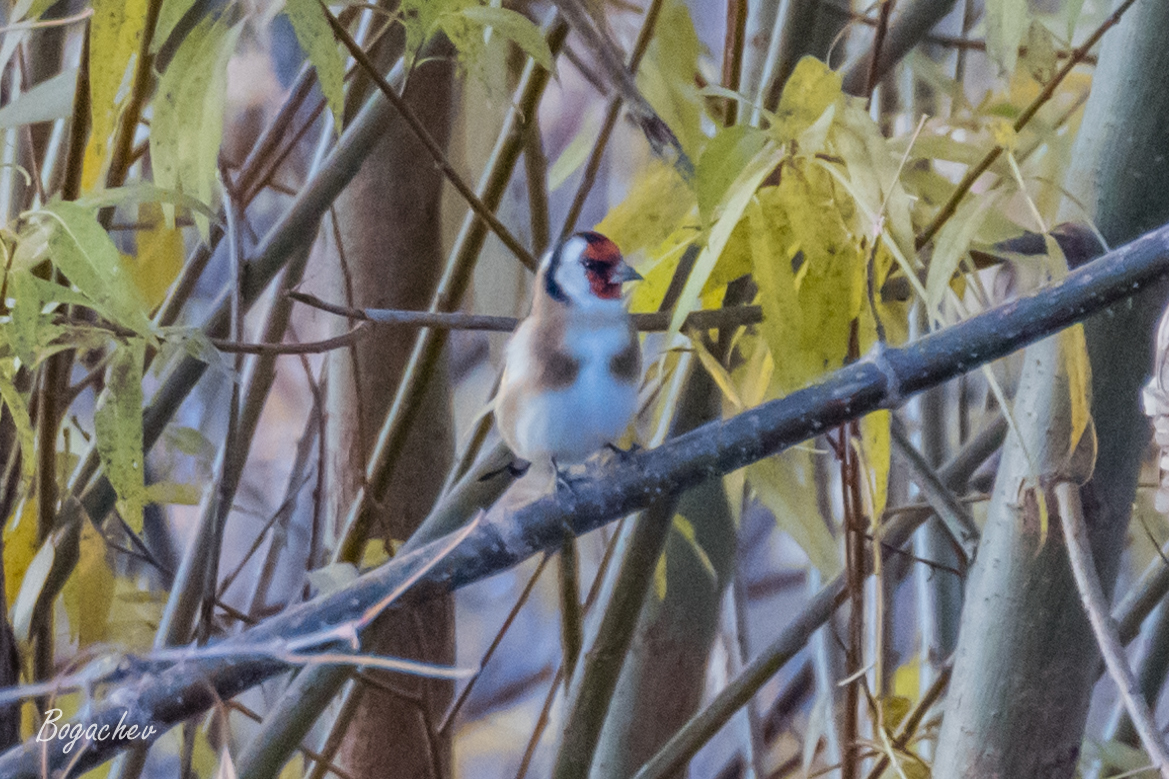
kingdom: Animalia
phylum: Chordata
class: Aves
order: Passeriformes
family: Fringillidae
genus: Carduelis
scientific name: Carduelis carduelis
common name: European goldfinch
